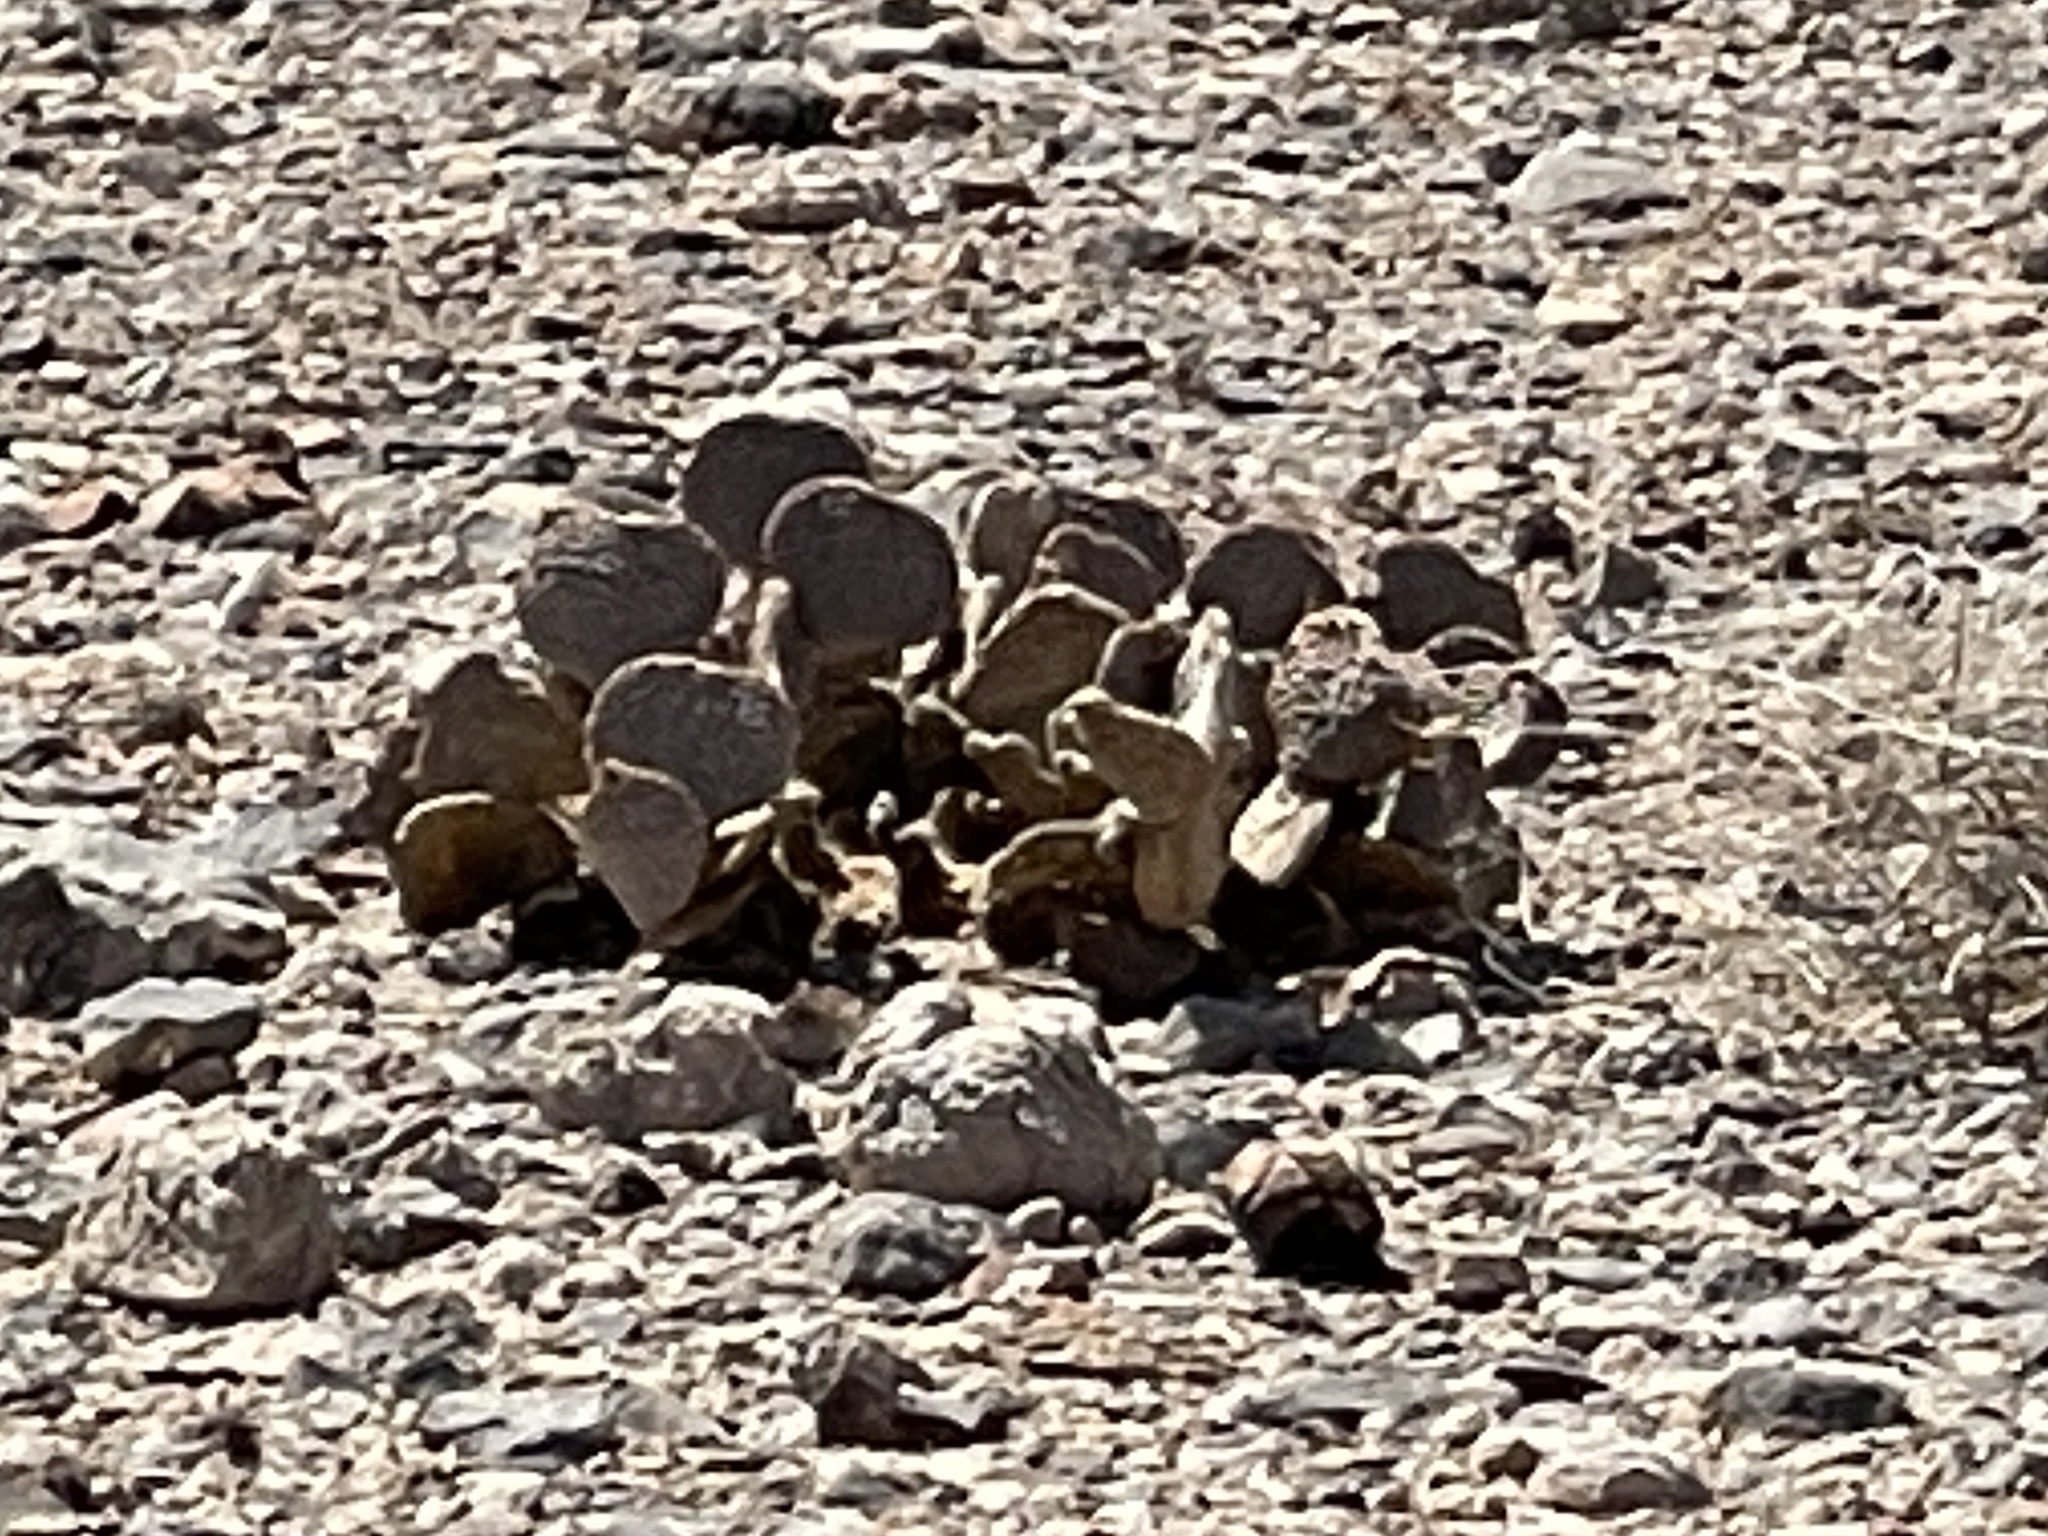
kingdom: Plantae
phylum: Tracheophyta
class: Magnoliopsida
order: Caryophyllales
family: Cactaceae
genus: Opuntia
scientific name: Opuntia basilaris
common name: Beavertail prickly-pear
